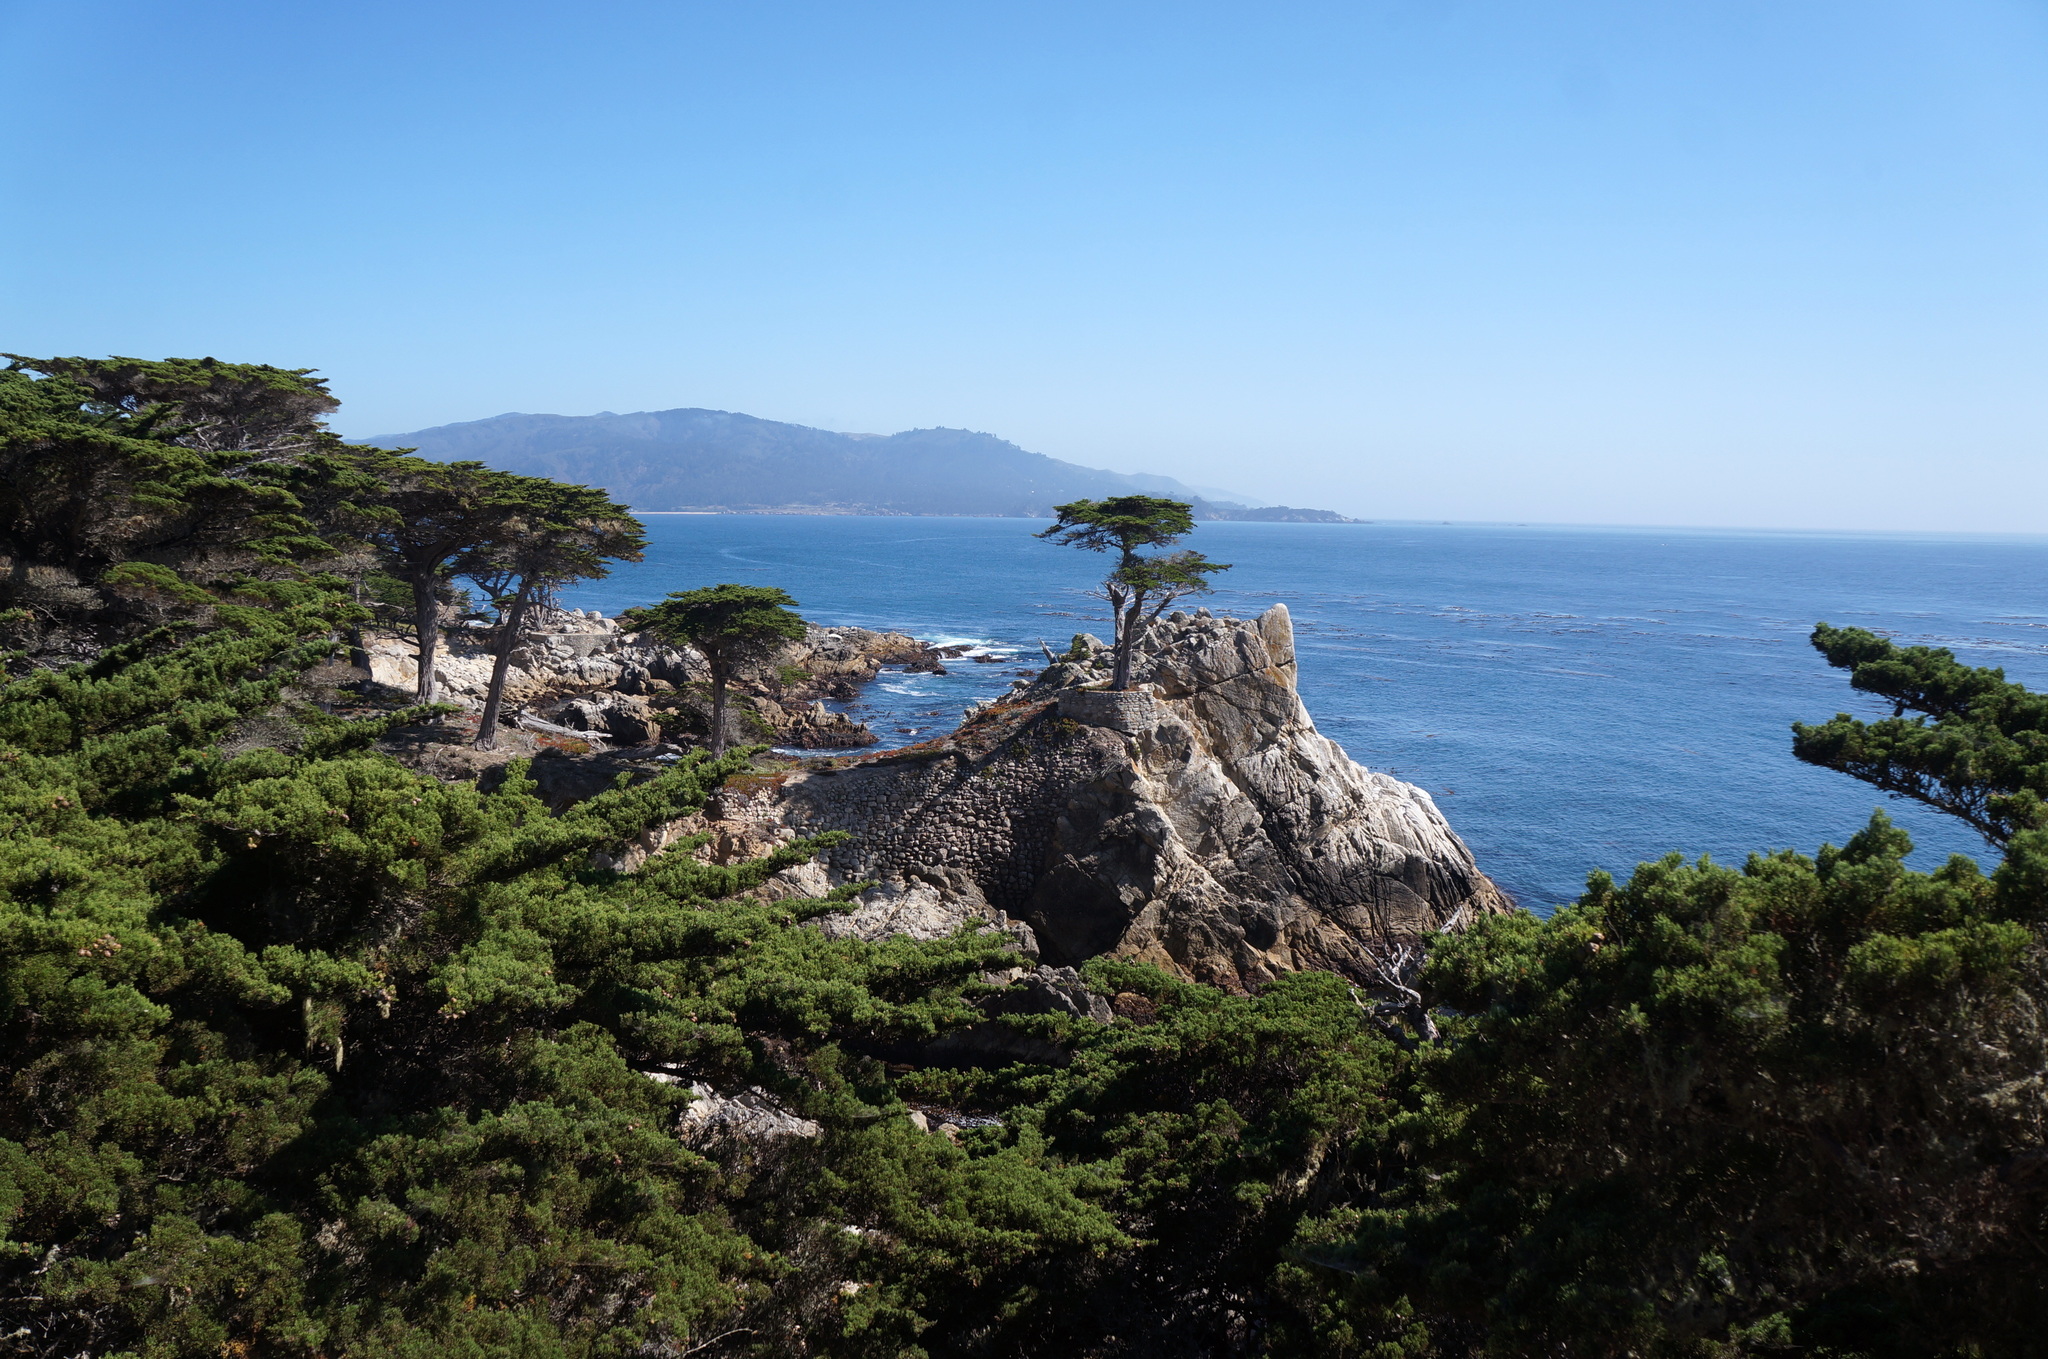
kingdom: Plantae
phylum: Tracheophyta
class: Pinopsida
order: Pinales
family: Cupressaceae
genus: Cupressus
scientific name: Cupressus macrocarpa
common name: Monterey cypress
